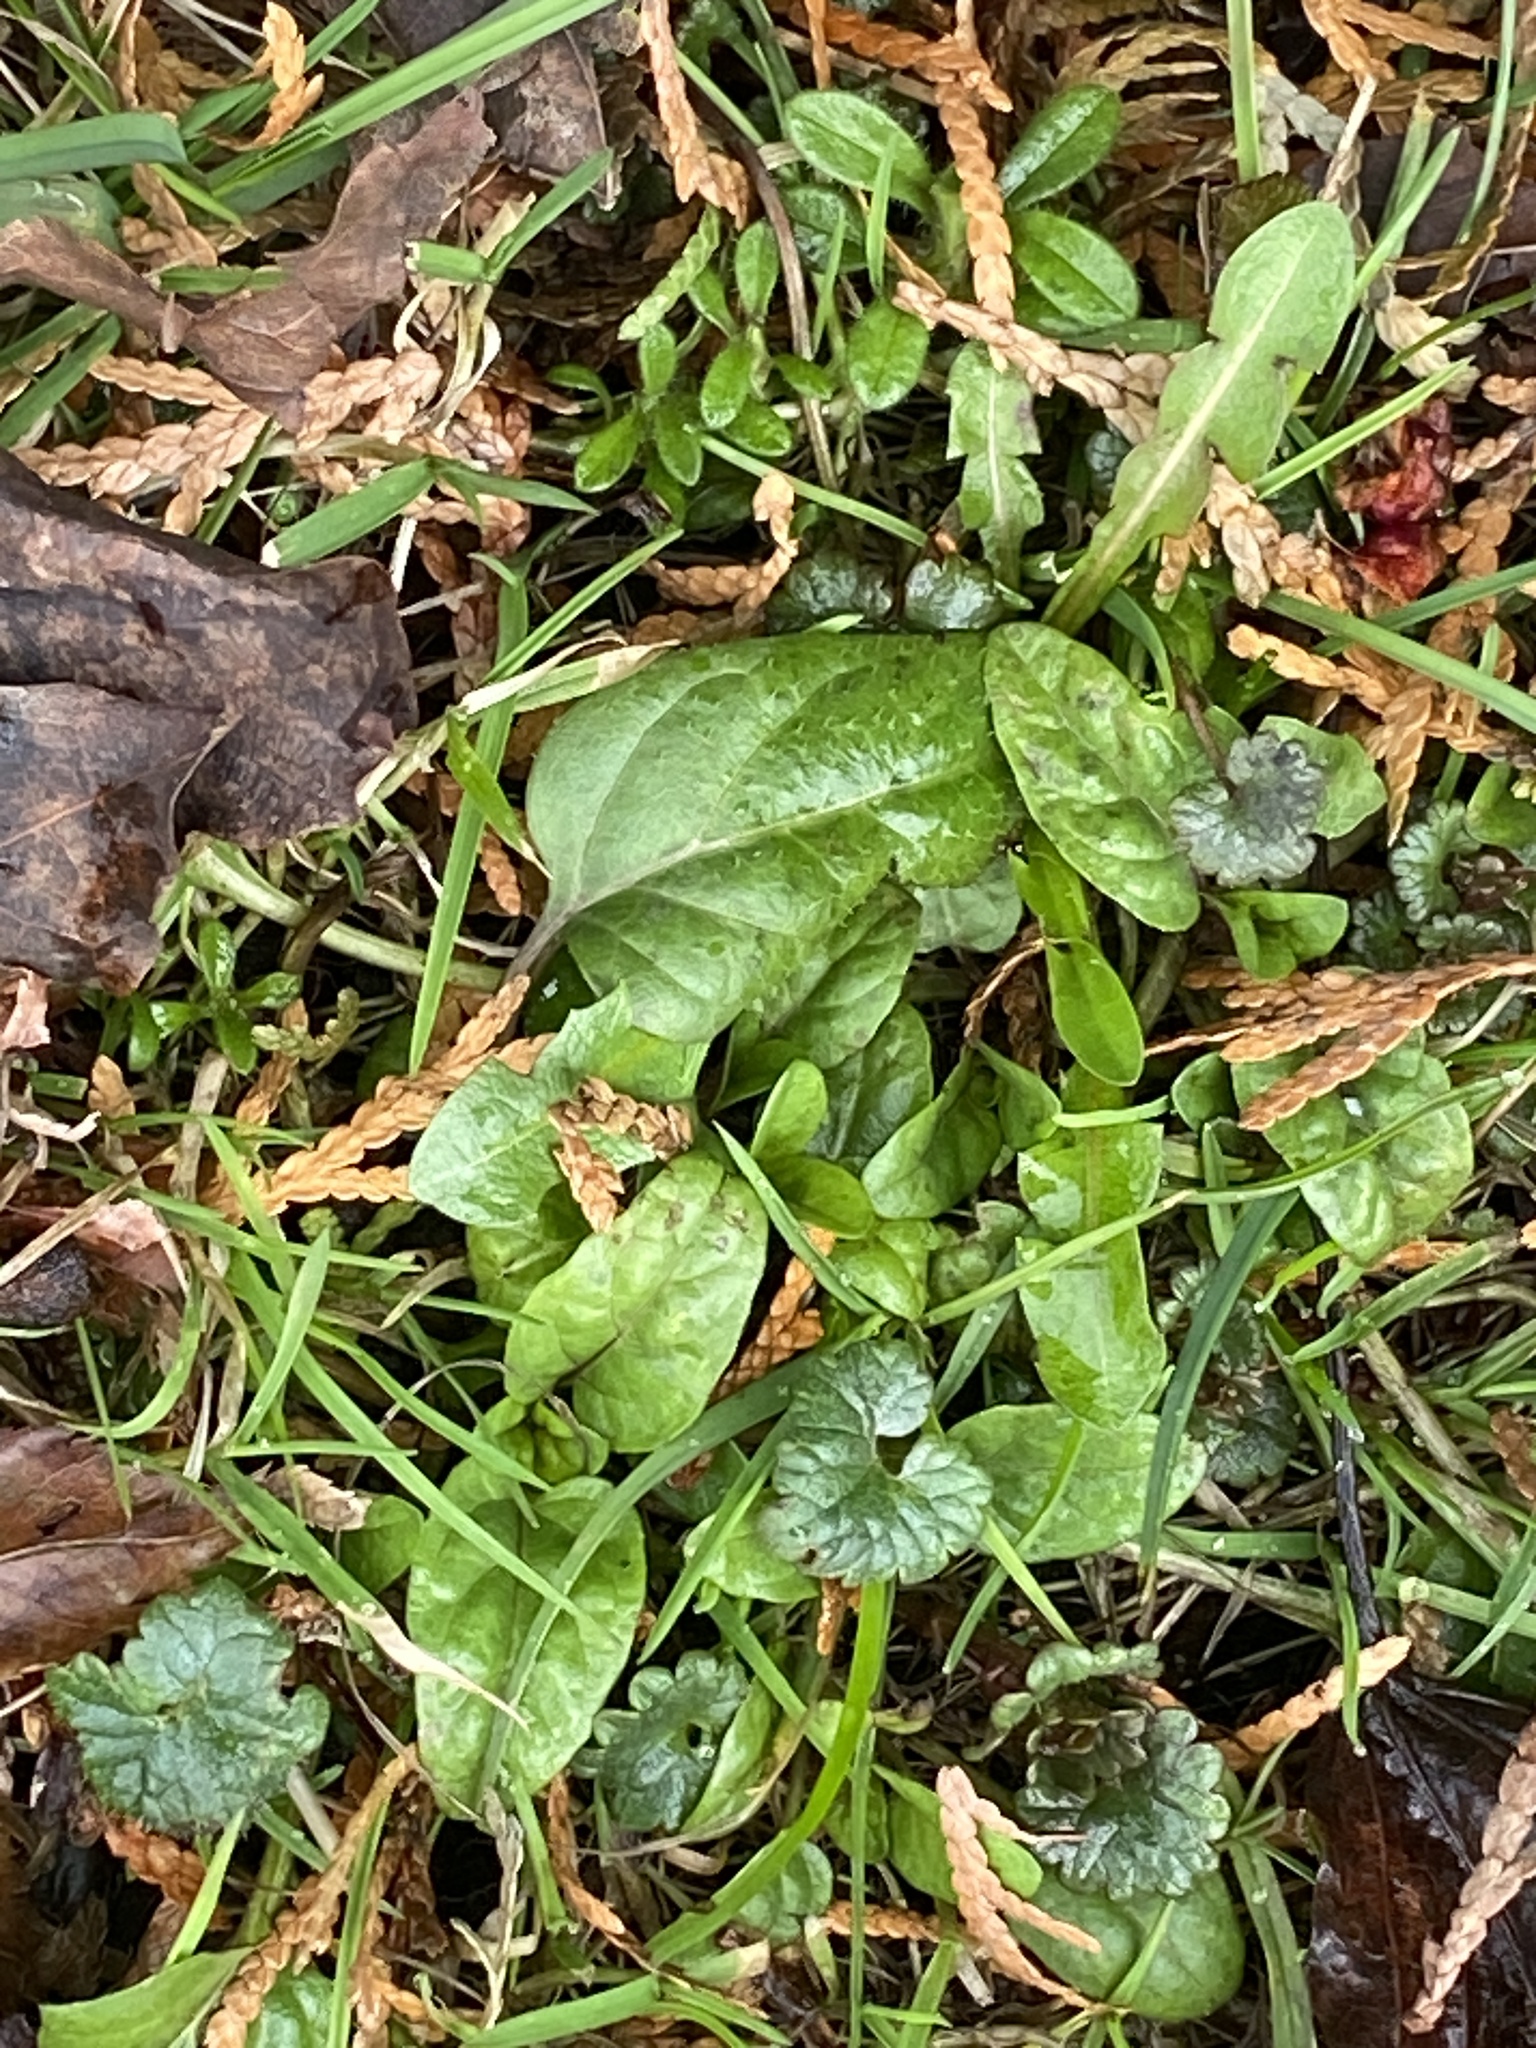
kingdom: Plantae
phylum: Tracheophyta
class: Magnoliopsida
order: Lamiales
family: Lamiaceae
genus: Prunella
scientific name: Prunella vulgaris
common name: Heal-all
